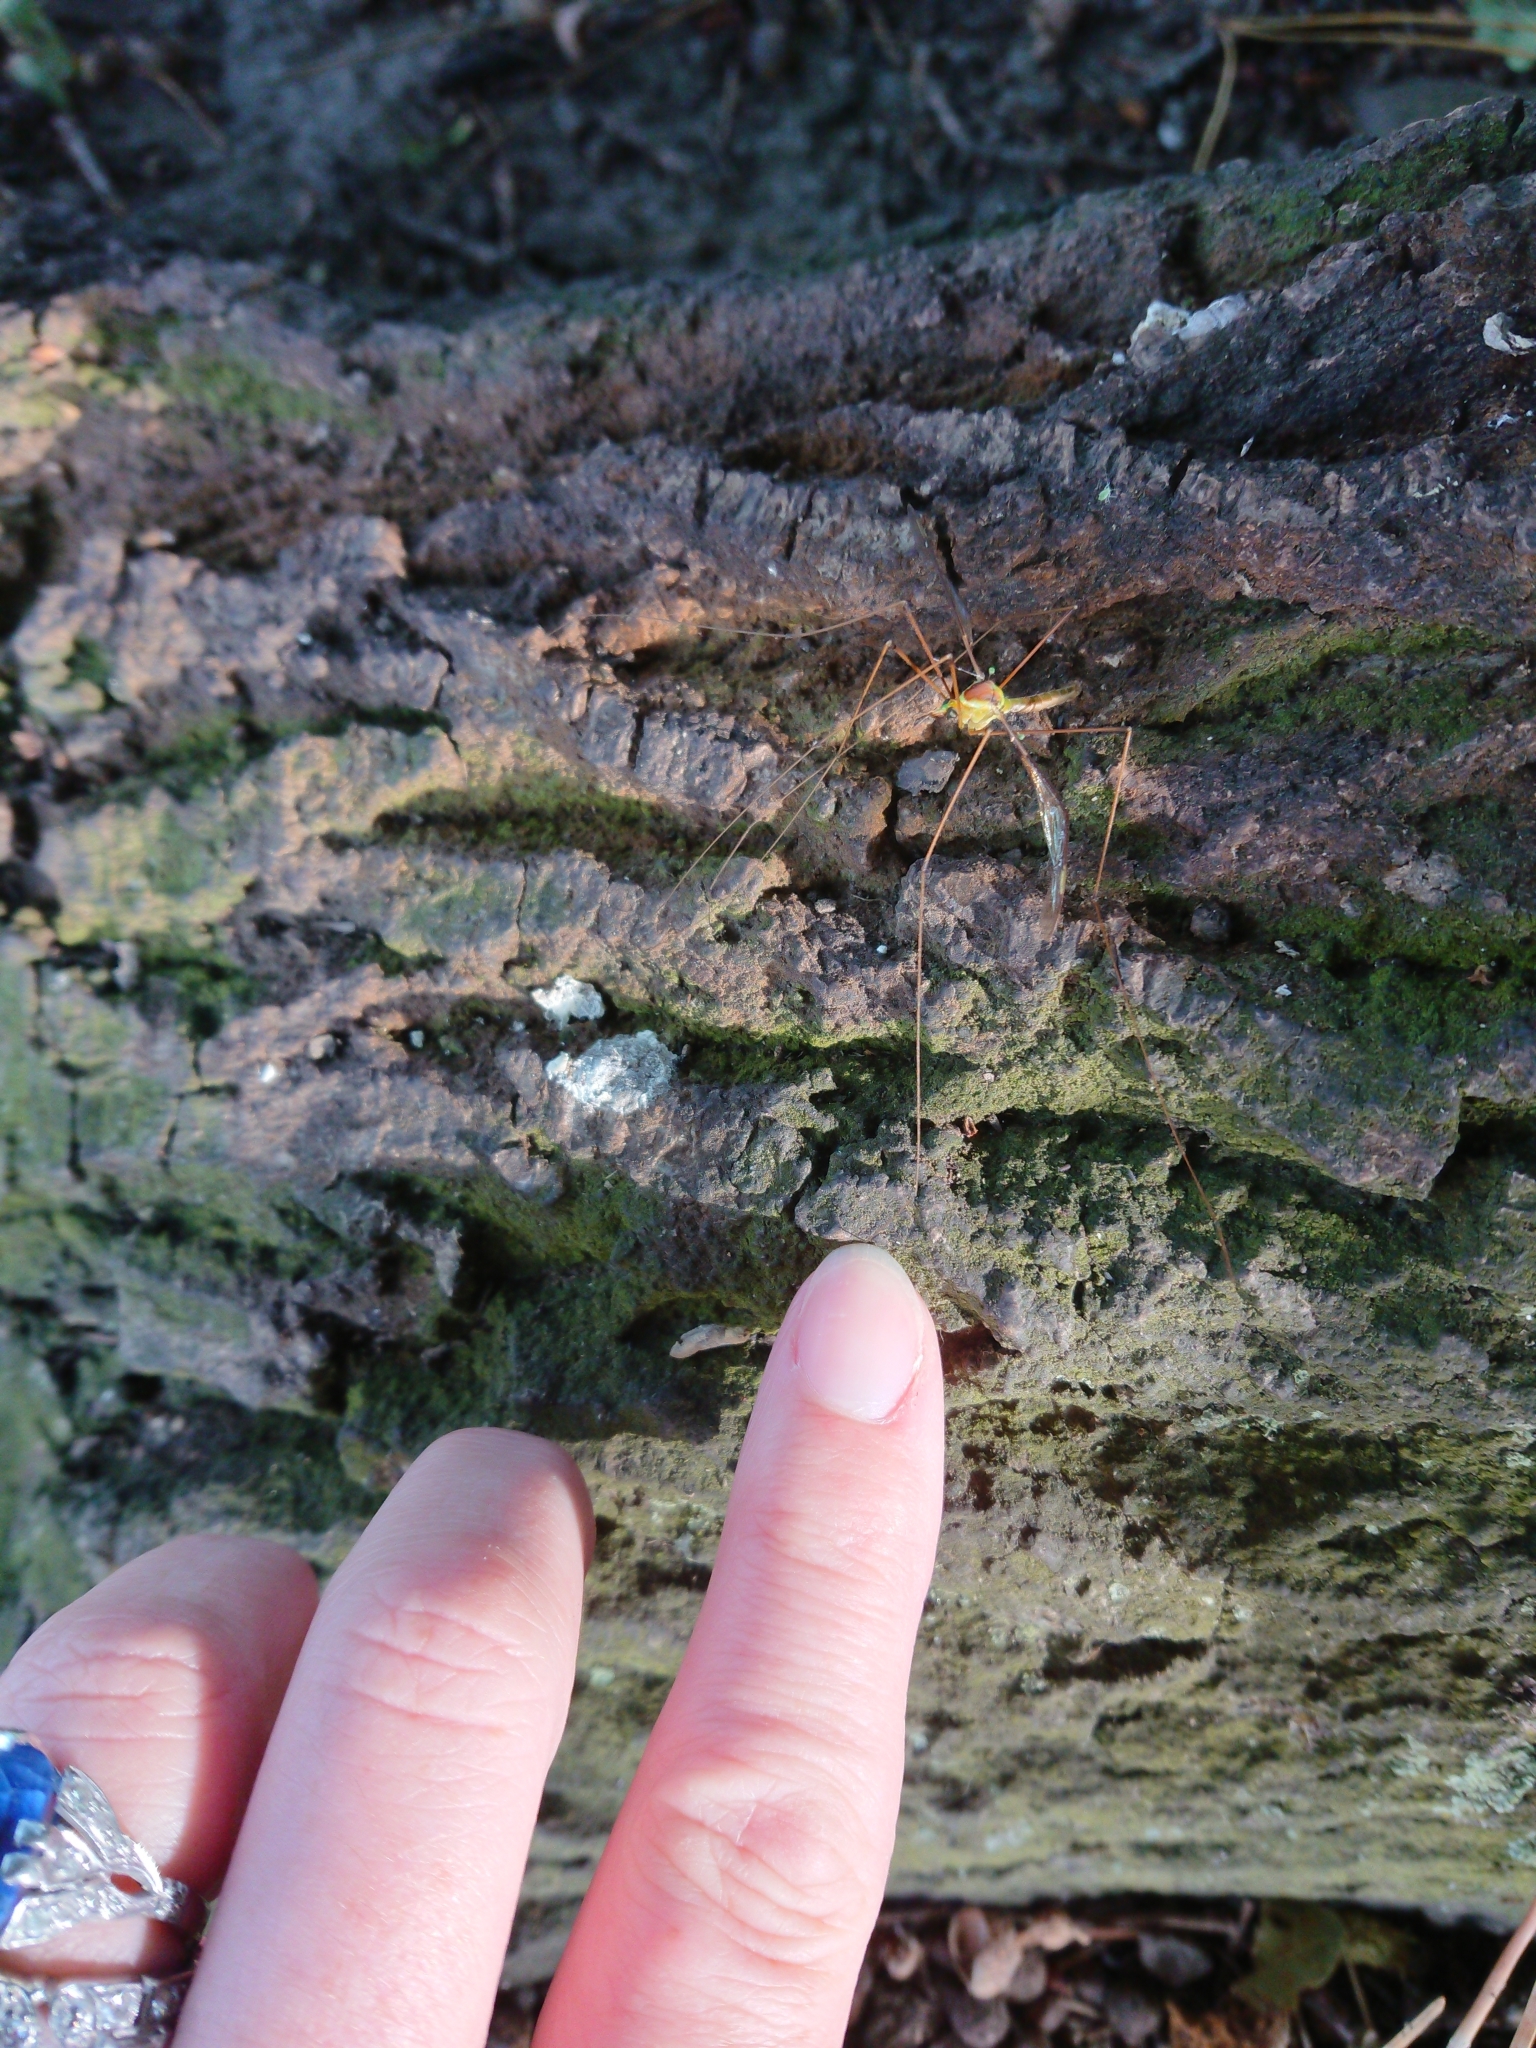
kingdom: Animalia
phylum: Arthropoda
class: Insecta
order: Diptera
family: Tipulidae
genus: Leptotarsus
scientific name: Leptotarsus albistigma
